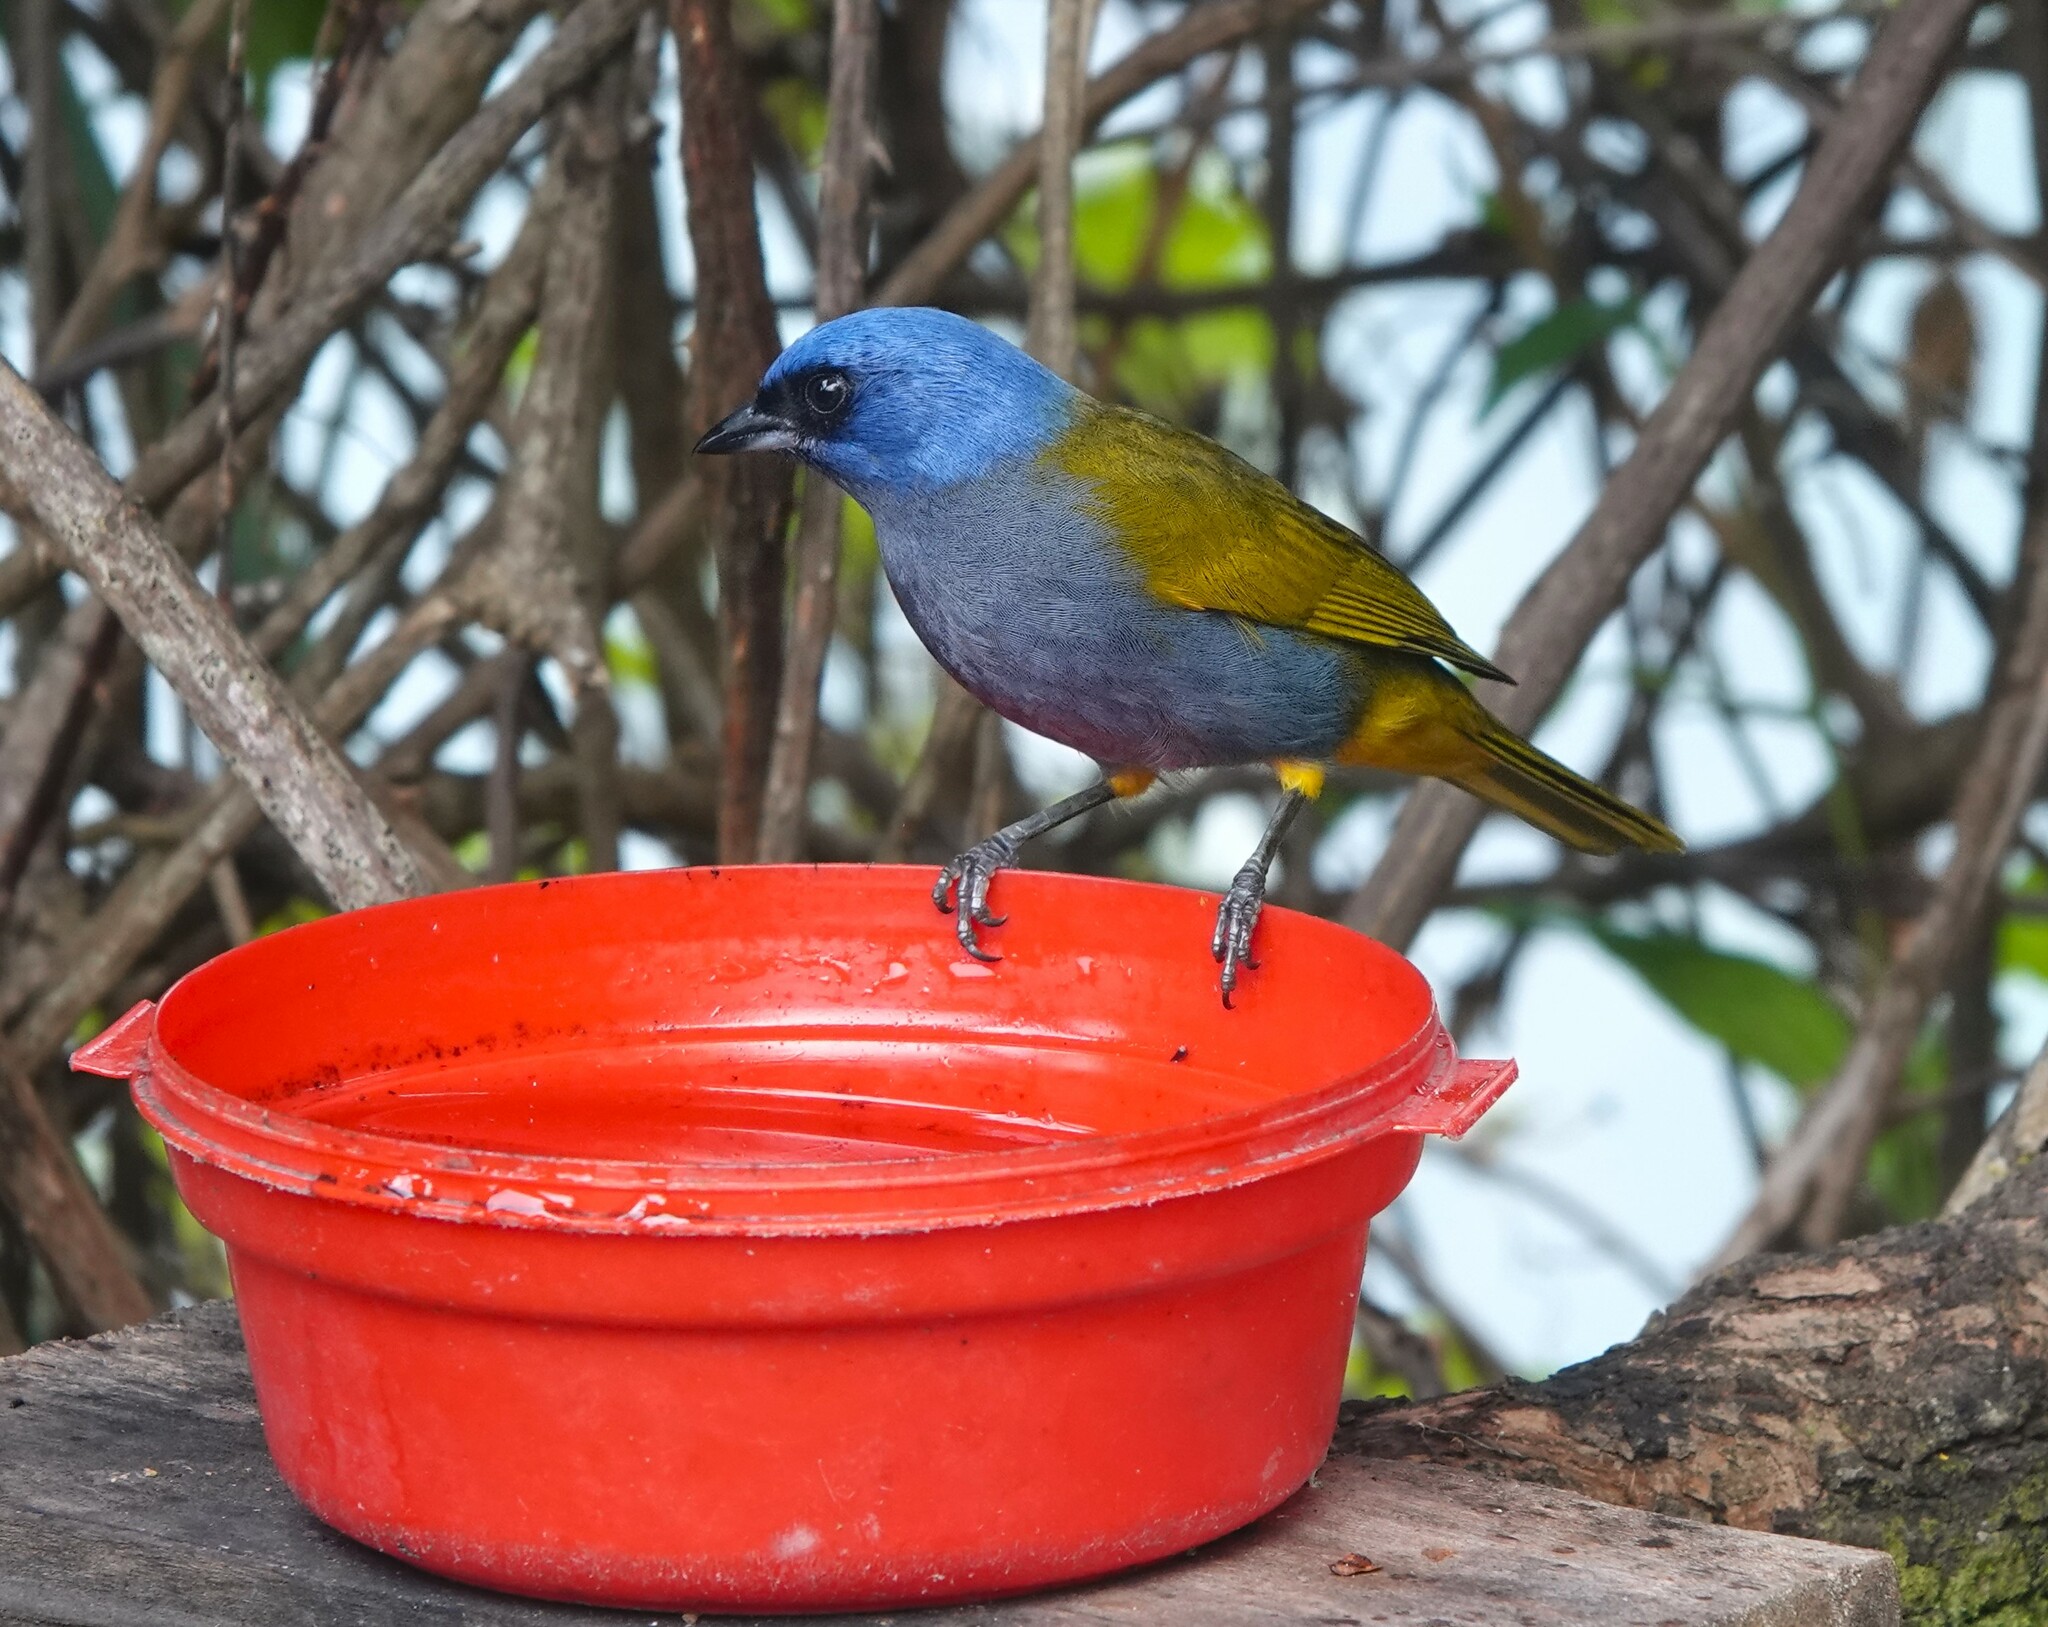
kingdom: Animalia
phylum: Chordata
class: Aves
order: Passeriformes
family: Thraupidae
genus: Sporathraupis
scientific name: Sporathraupis cyanocephala
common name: Blue-capped tanager
